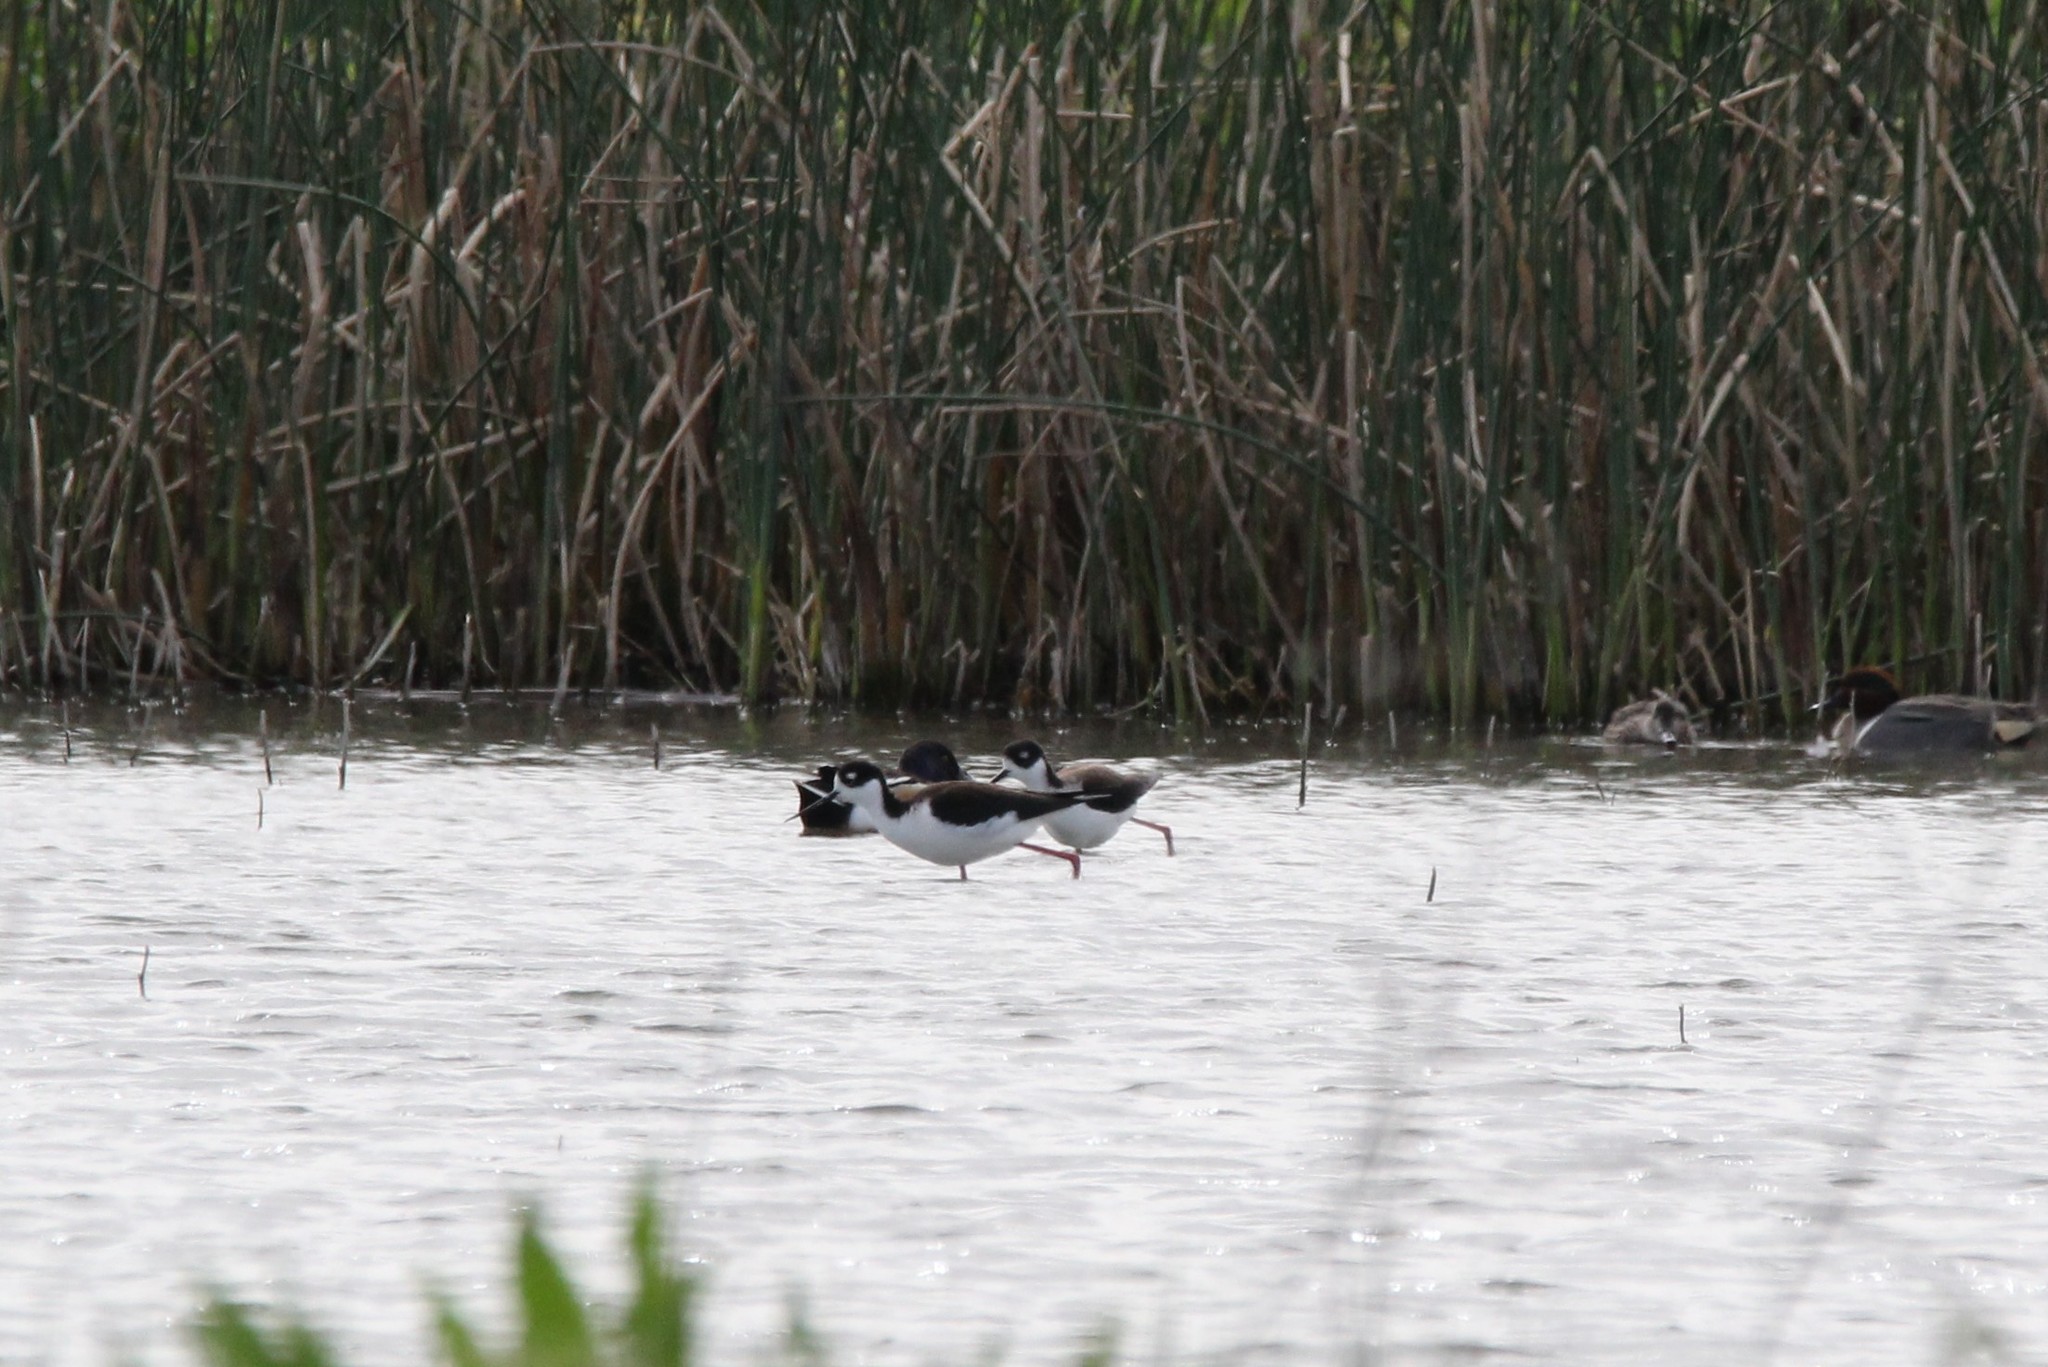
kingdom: Animalia
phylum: Chordata
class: Aves
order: Charadriiformes
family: Recurvirostridae
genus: Himantopus
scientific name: Himantopus mexicanus
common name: Black-necked stilt
